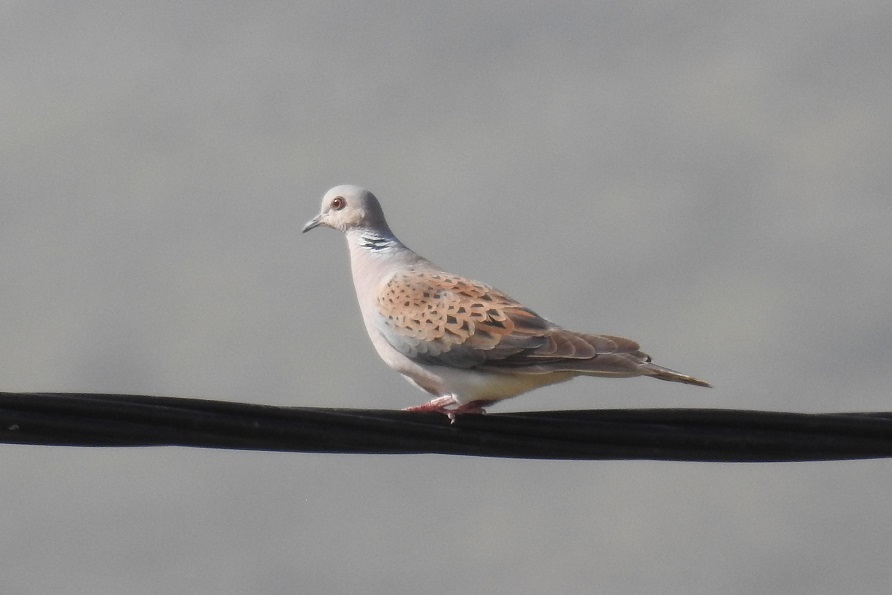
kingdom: Animalia
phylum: Chordata
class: Aves
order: Columbiformes
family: Columbidae
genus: Streptopelia
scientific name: Streptopelia turtur
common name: European turtle dove
